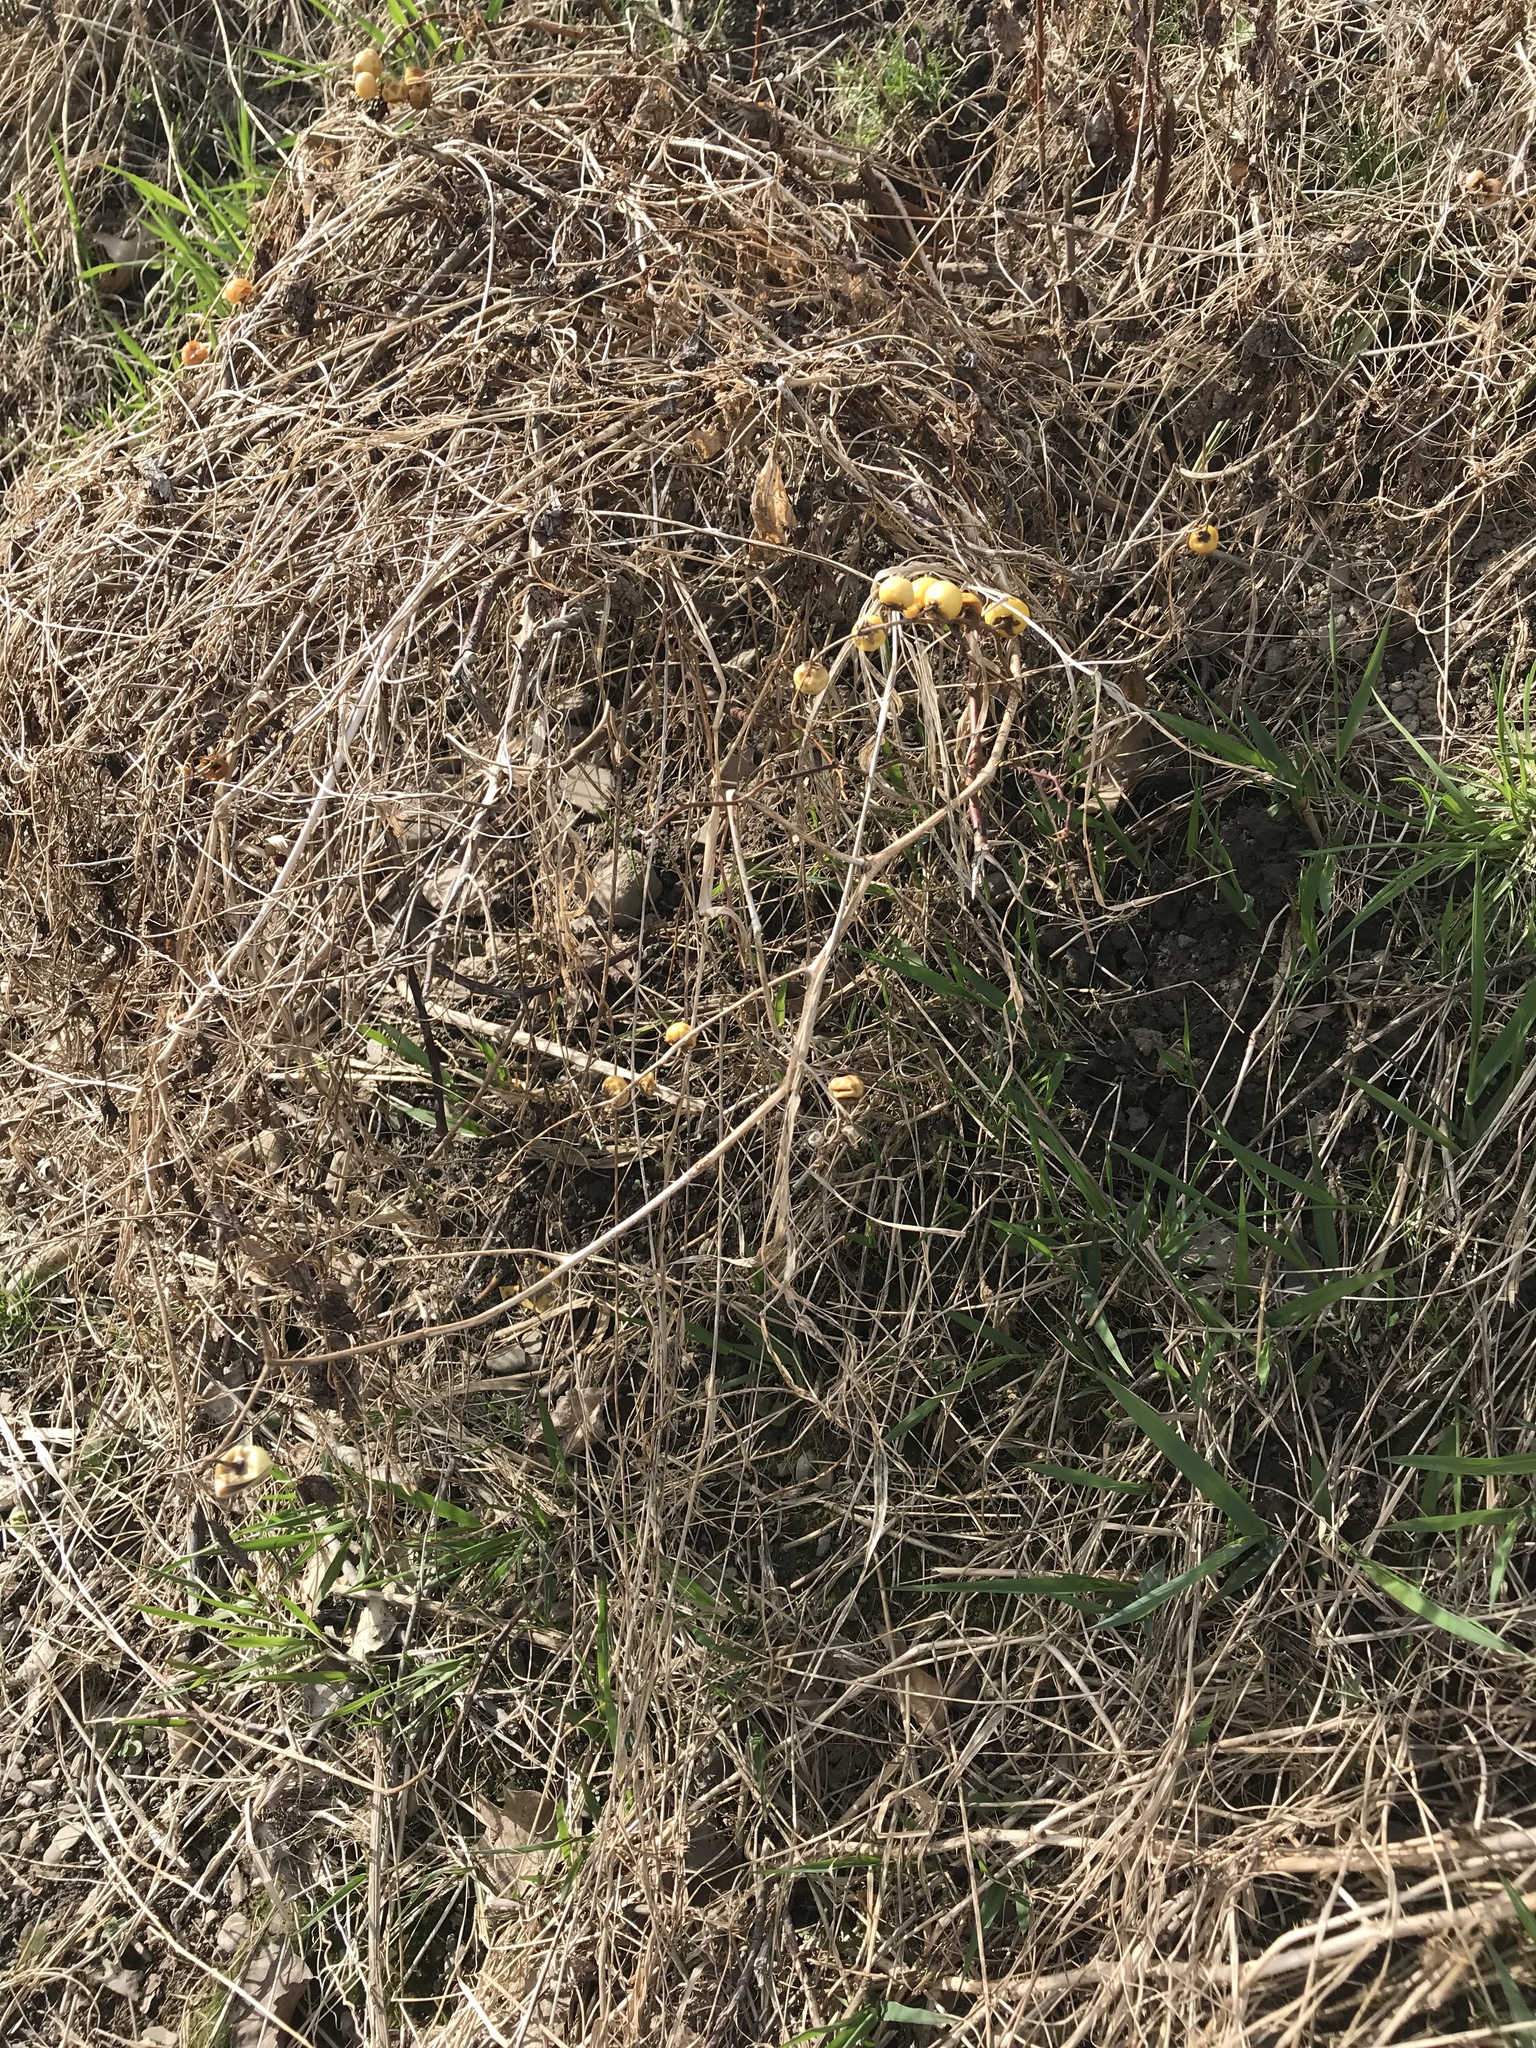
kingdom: Plantae
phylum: Tracheophyta
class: Magnoliopsida
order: Solanales
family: Solanaceae
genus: Solanum
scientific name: Solanum carolinense
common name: Horse-nettle
